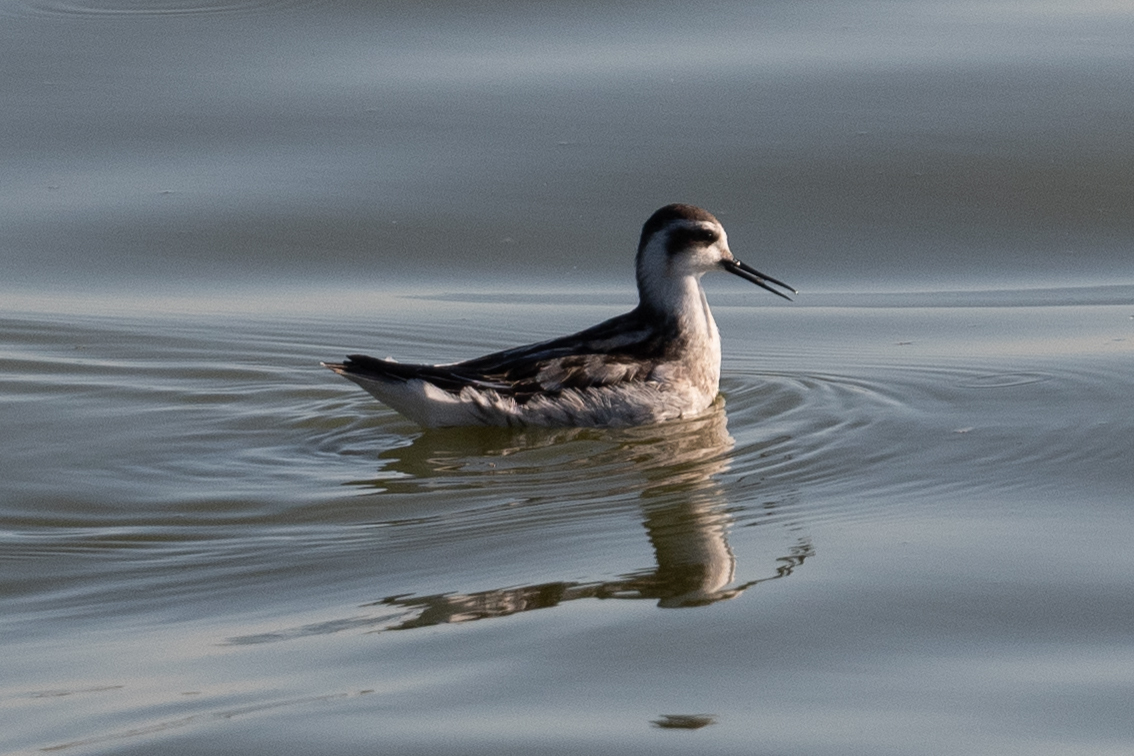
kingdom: Animalia
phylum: Chordata
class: Aves
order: Charadriiformes
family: Scolopacidae
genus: Phalaropus
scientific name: Phalaropus lobatus
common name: Red-necked phalarope
